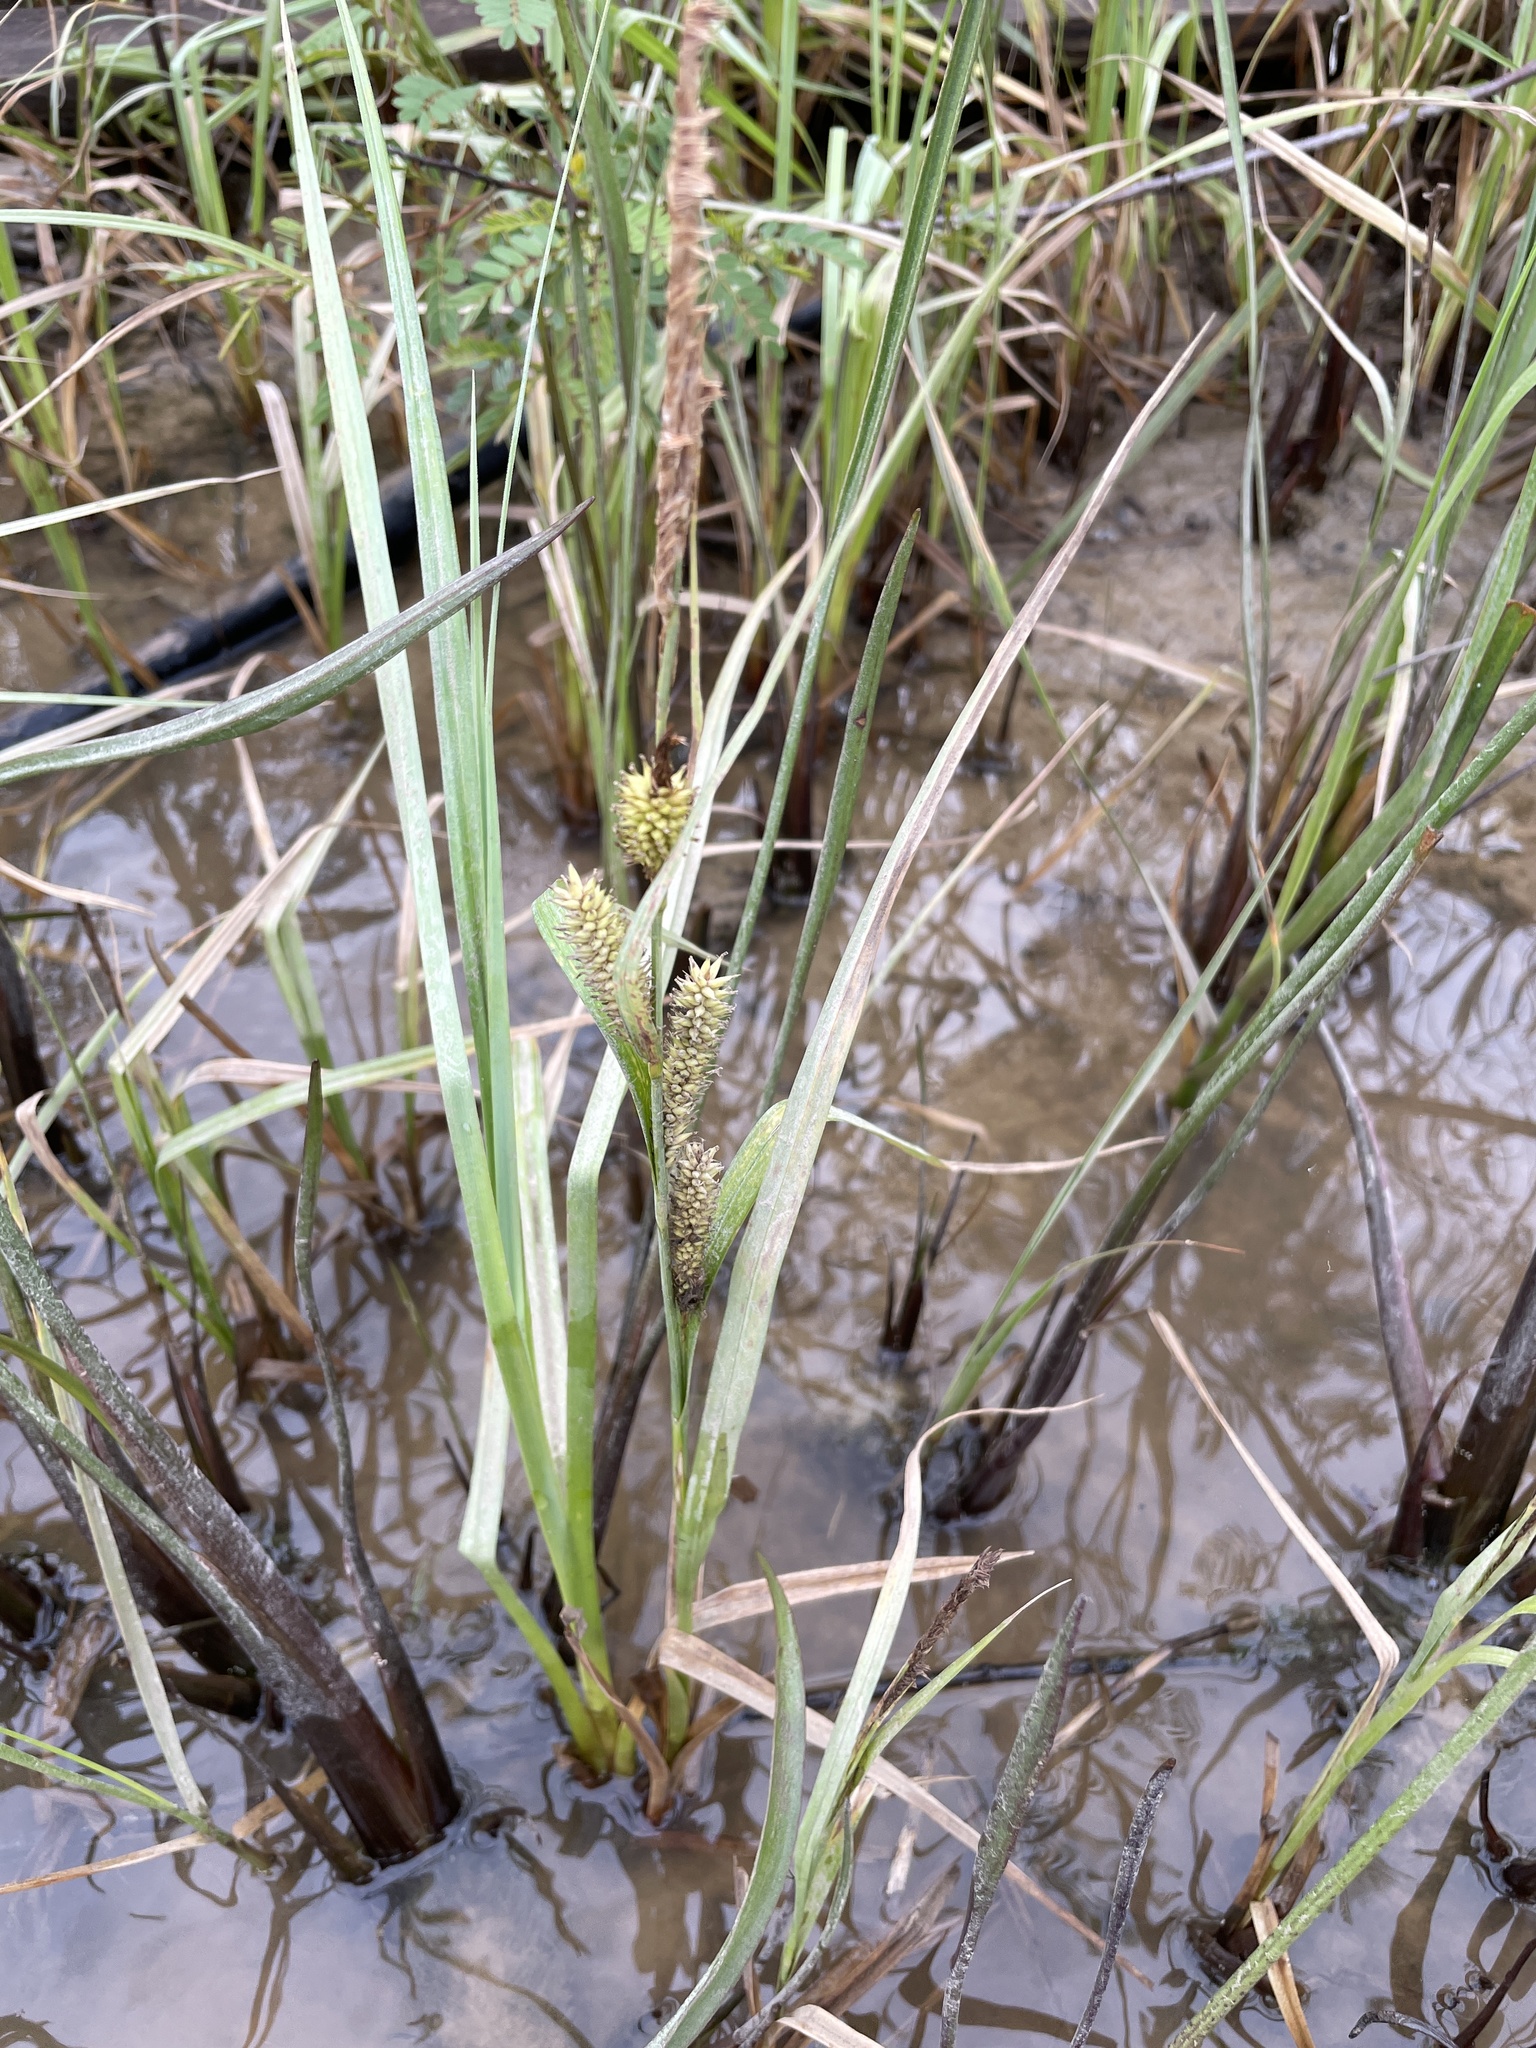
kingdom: Plantae
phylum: Tracheophyta
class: Liliopsida
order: Poales
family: Cyperaceae
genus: Carex
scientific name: Carex hyalinolepis
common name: Shoreline sedge
